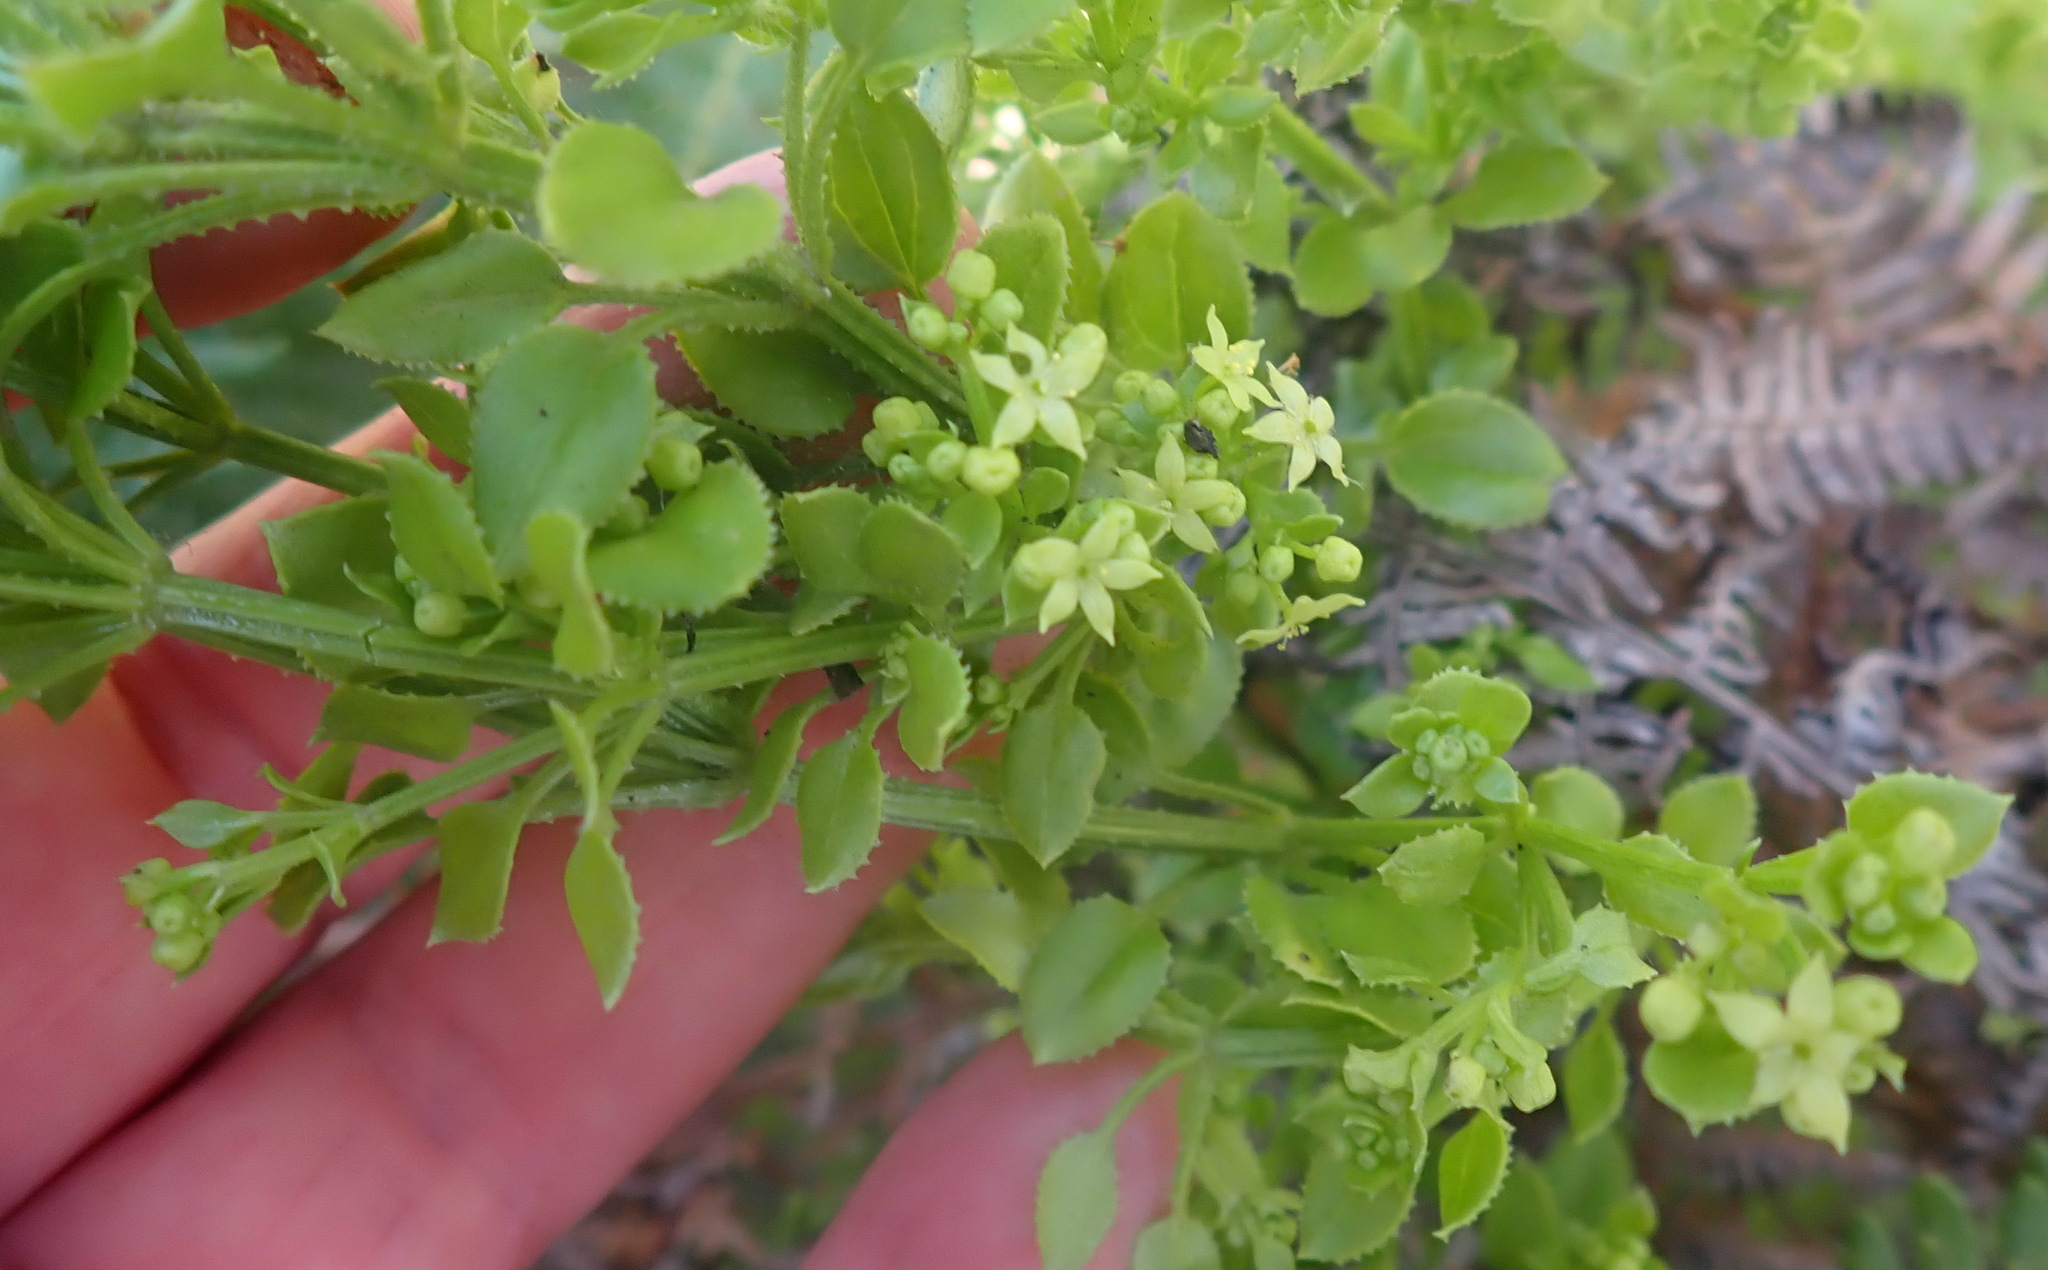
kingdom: Plantae
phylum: Tracheophyta
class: Magnoliopsida
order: Gentianales
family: Rubiaceae
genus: Rubia
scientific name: Rubia petiolaris
